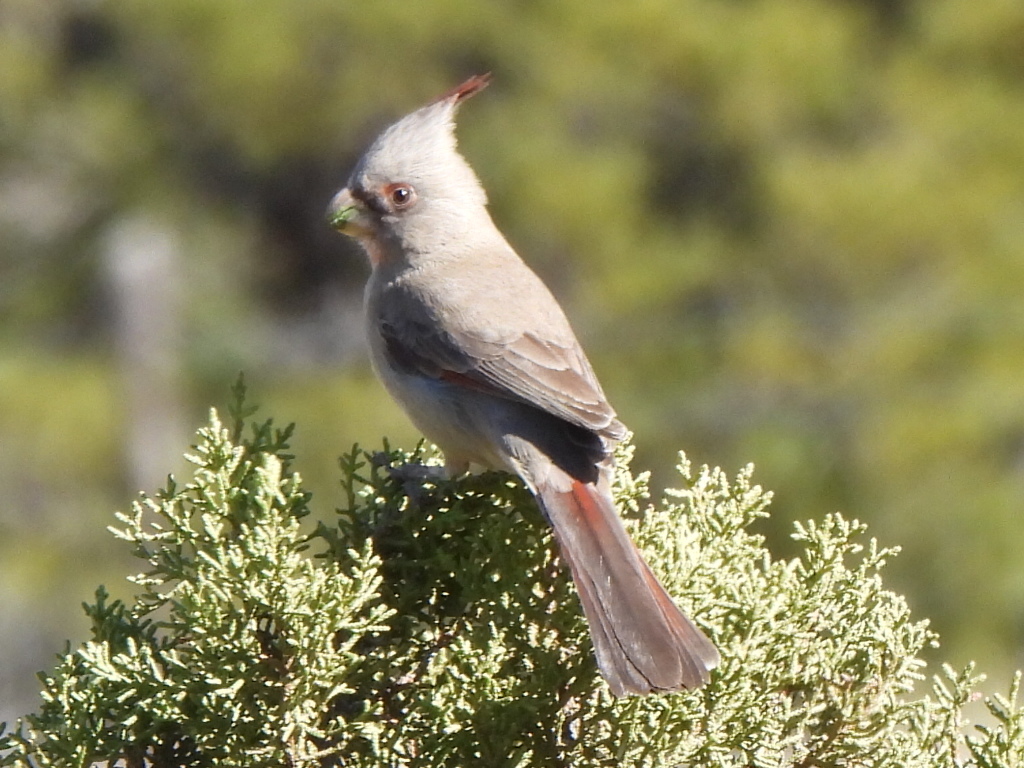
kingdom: Animalia
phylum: Chordata
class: Aves
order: Passeriformes
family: Cardinalidae
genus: Cardinalis
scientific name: Cardinalis sinuatus
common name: Pyrrhuloxia
